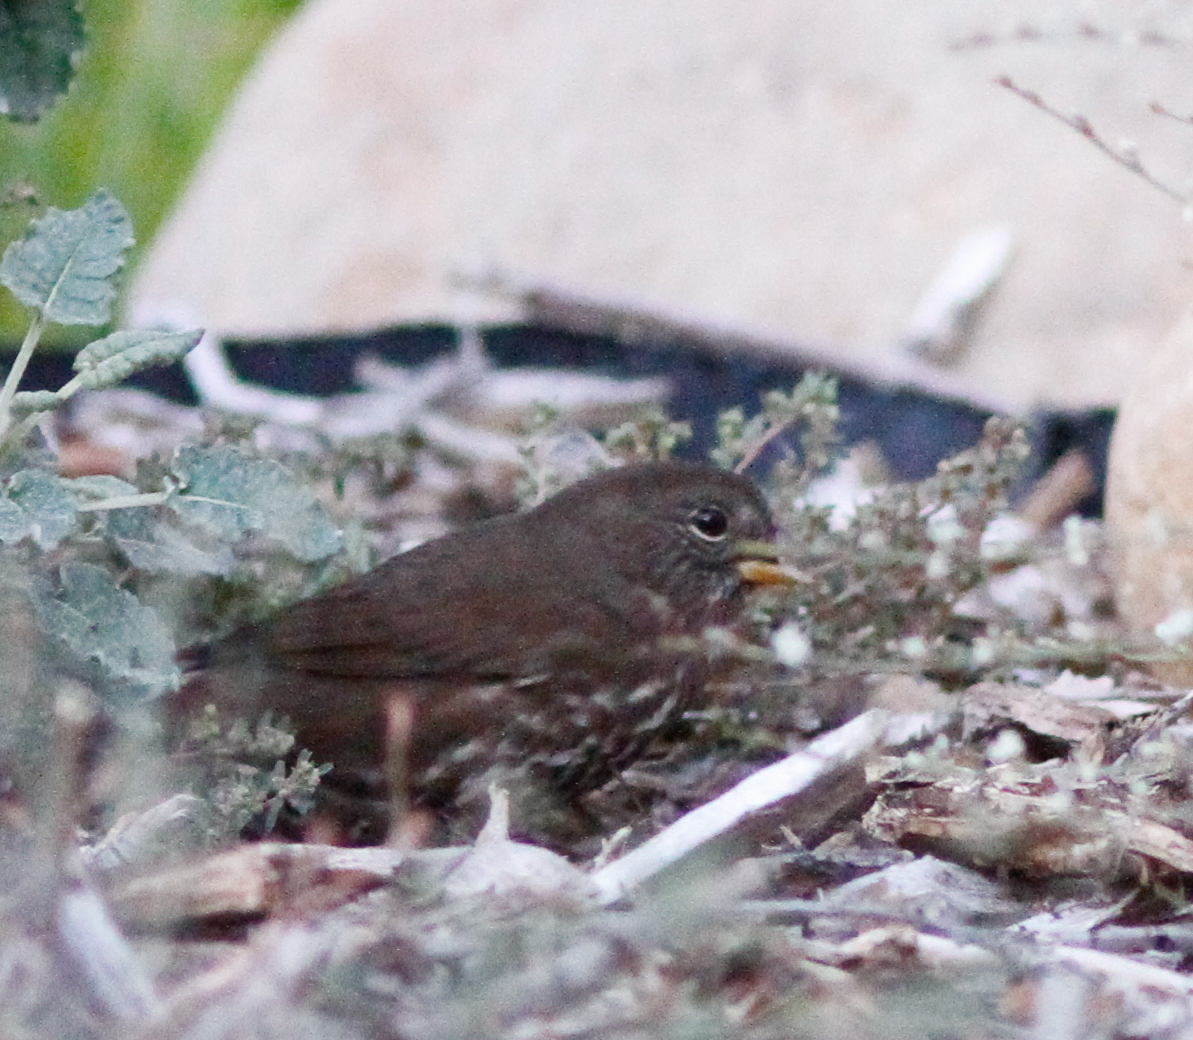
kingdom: Animalia
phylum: Chordata
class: Aves
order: Passeriformes
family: Passerellidae
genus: Passerella
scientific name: Passerella iliaca
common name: Fox sparrow
